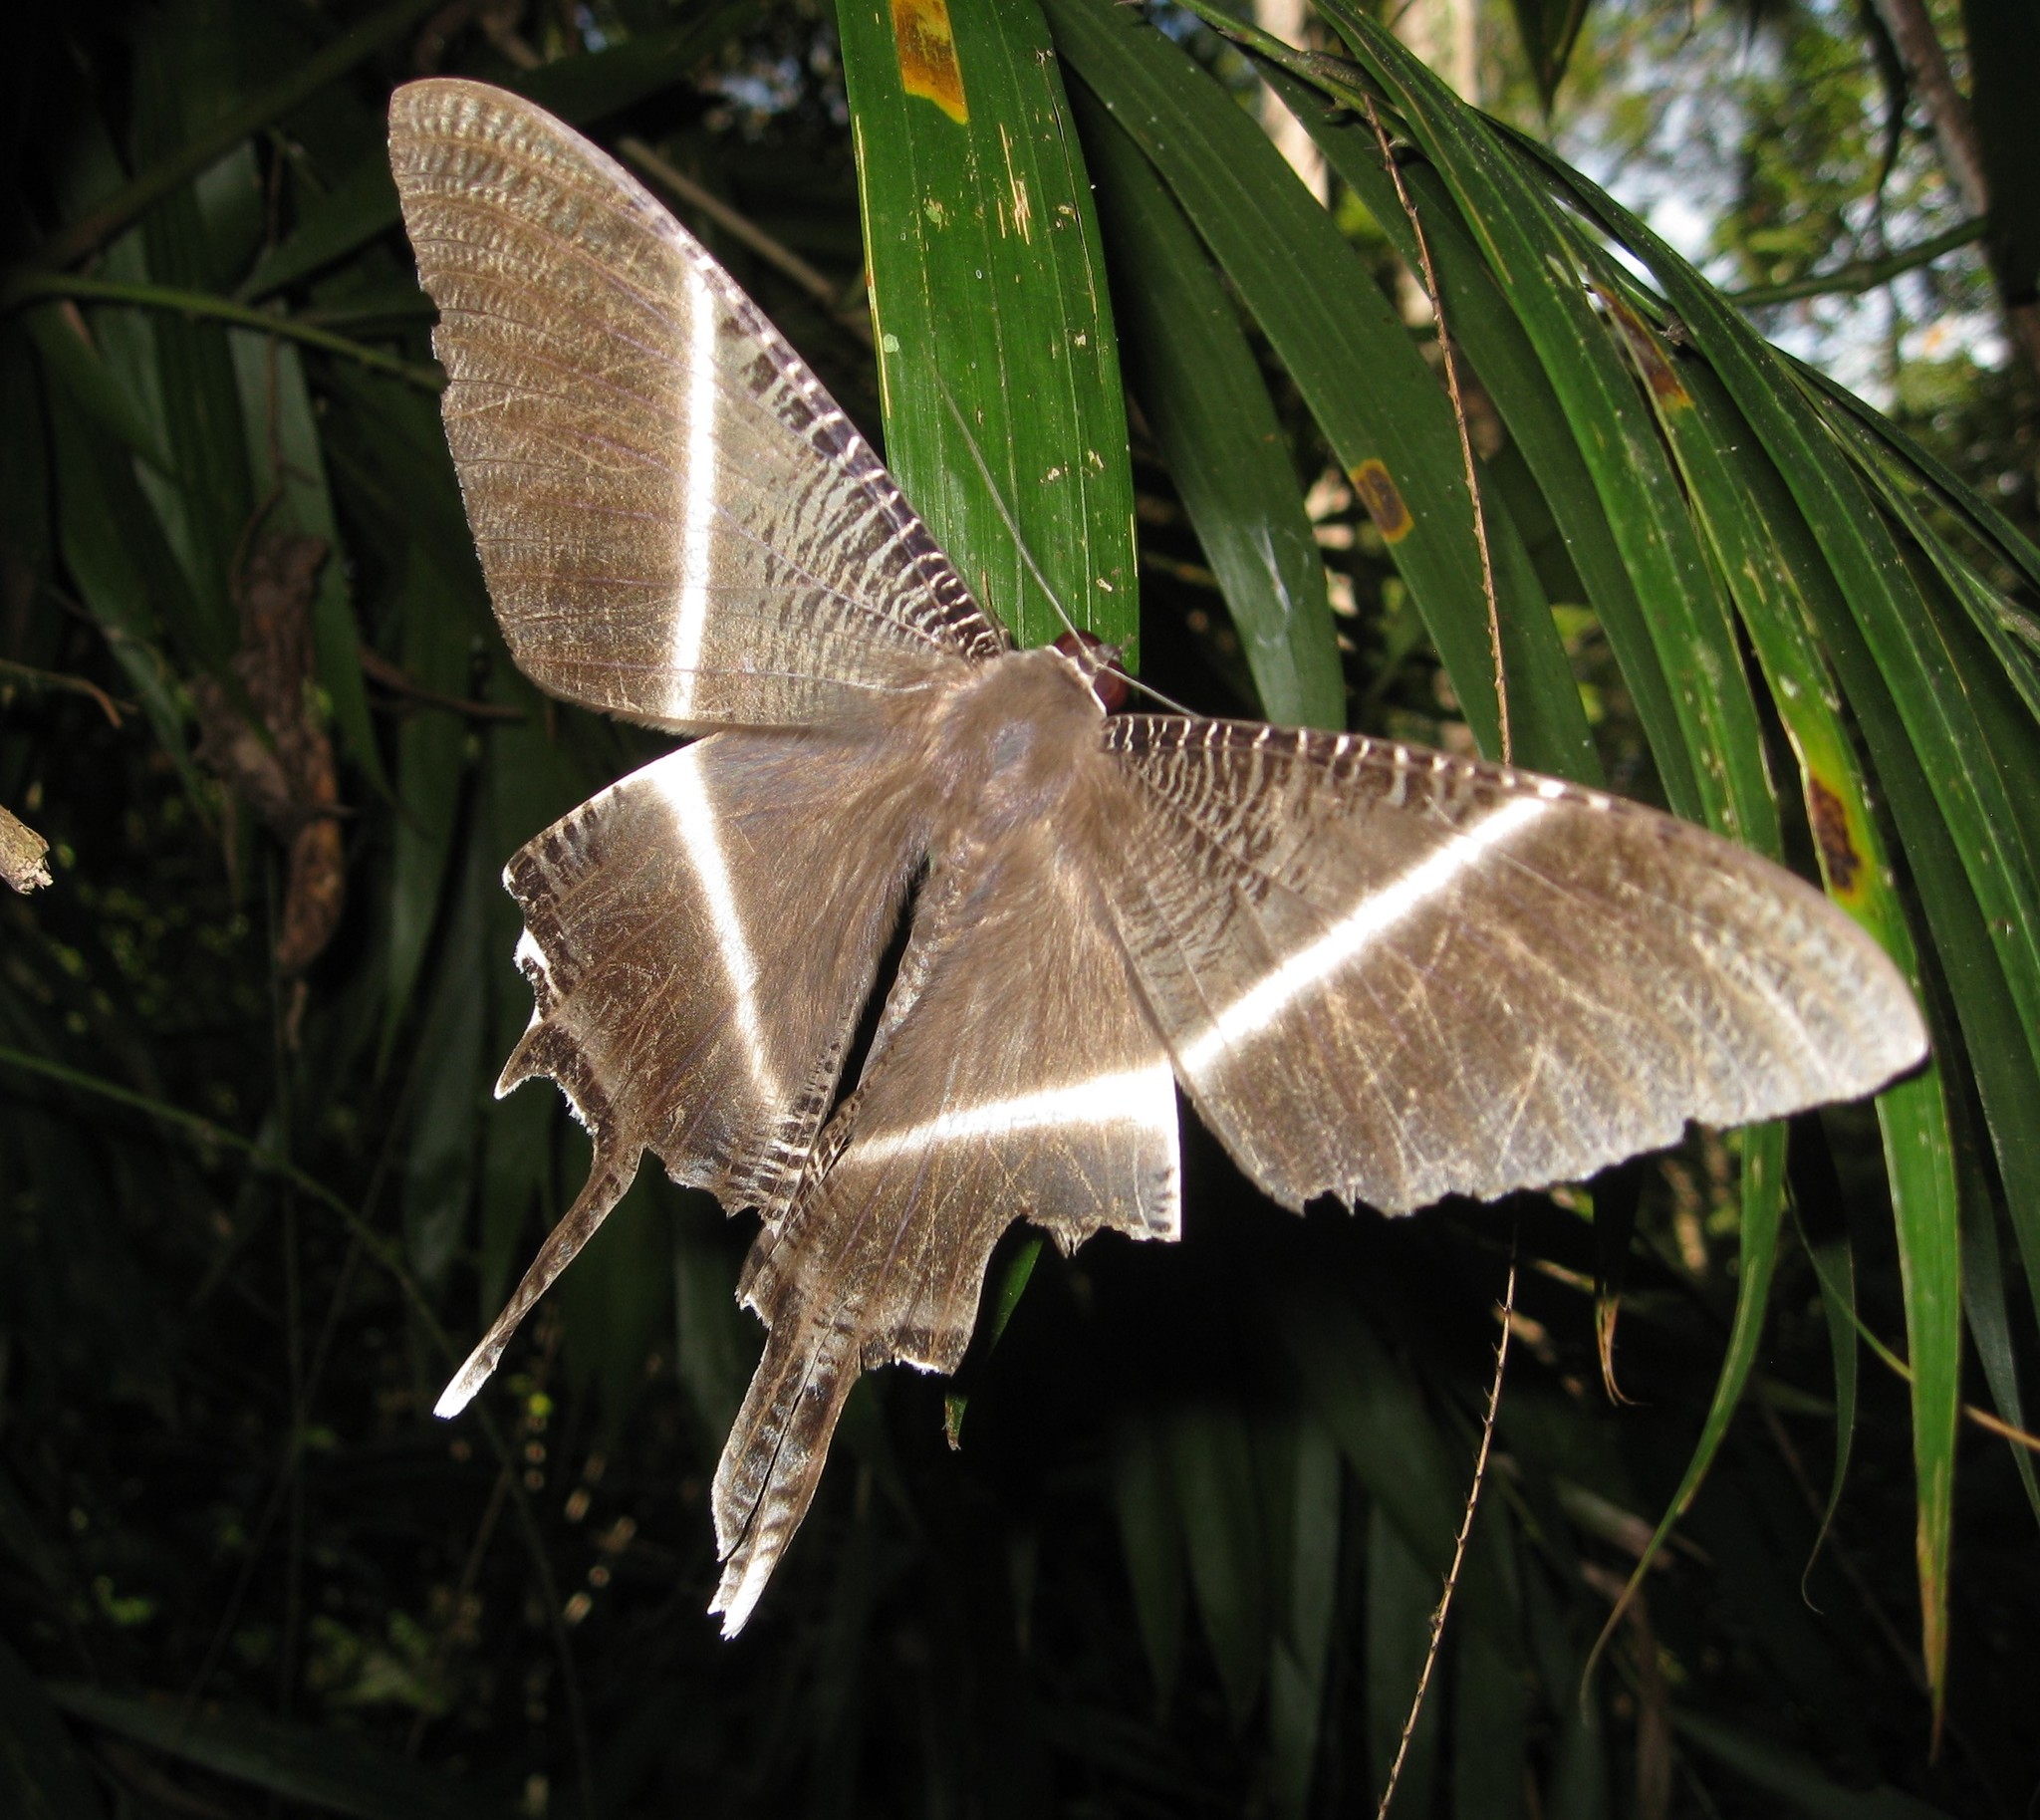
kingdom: Animalia
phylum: Arthropoda
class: Insecta
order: Lepidoptera
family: Uraniidae
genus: Lyssa
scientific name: Lyssa menoetius
